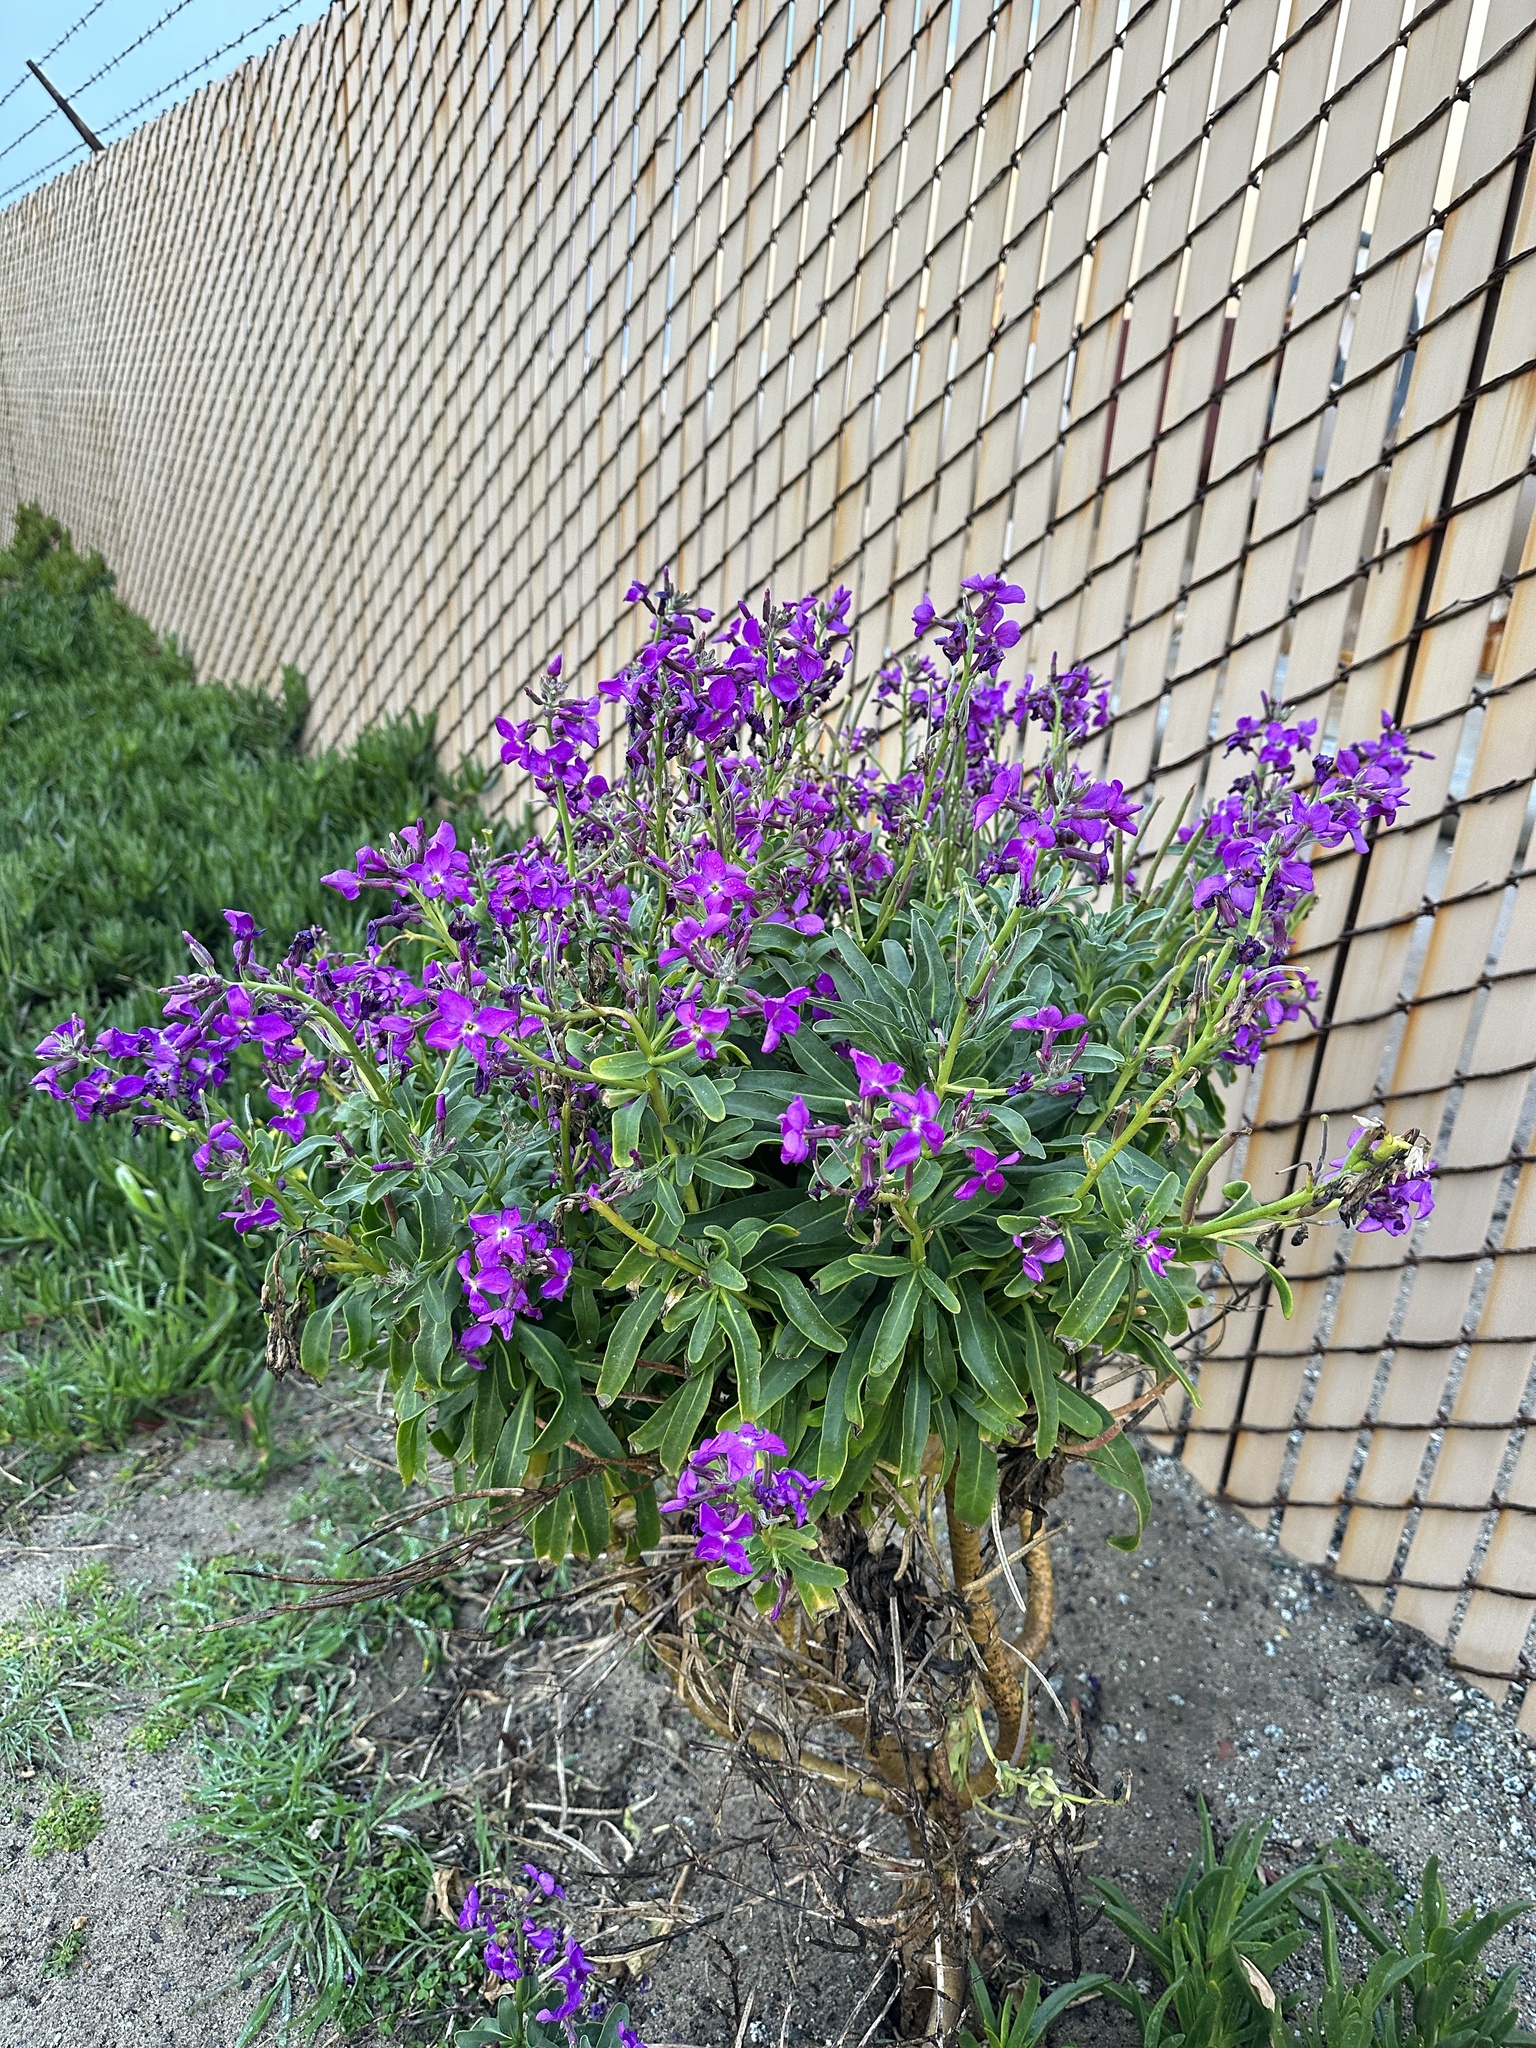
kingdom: Plantae
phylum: Tracheophyta
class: Magnoliopsida
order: Brassicales
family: Brassicaceae
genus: Matthiola
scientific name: Matthiola incana
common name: Hoary stock
